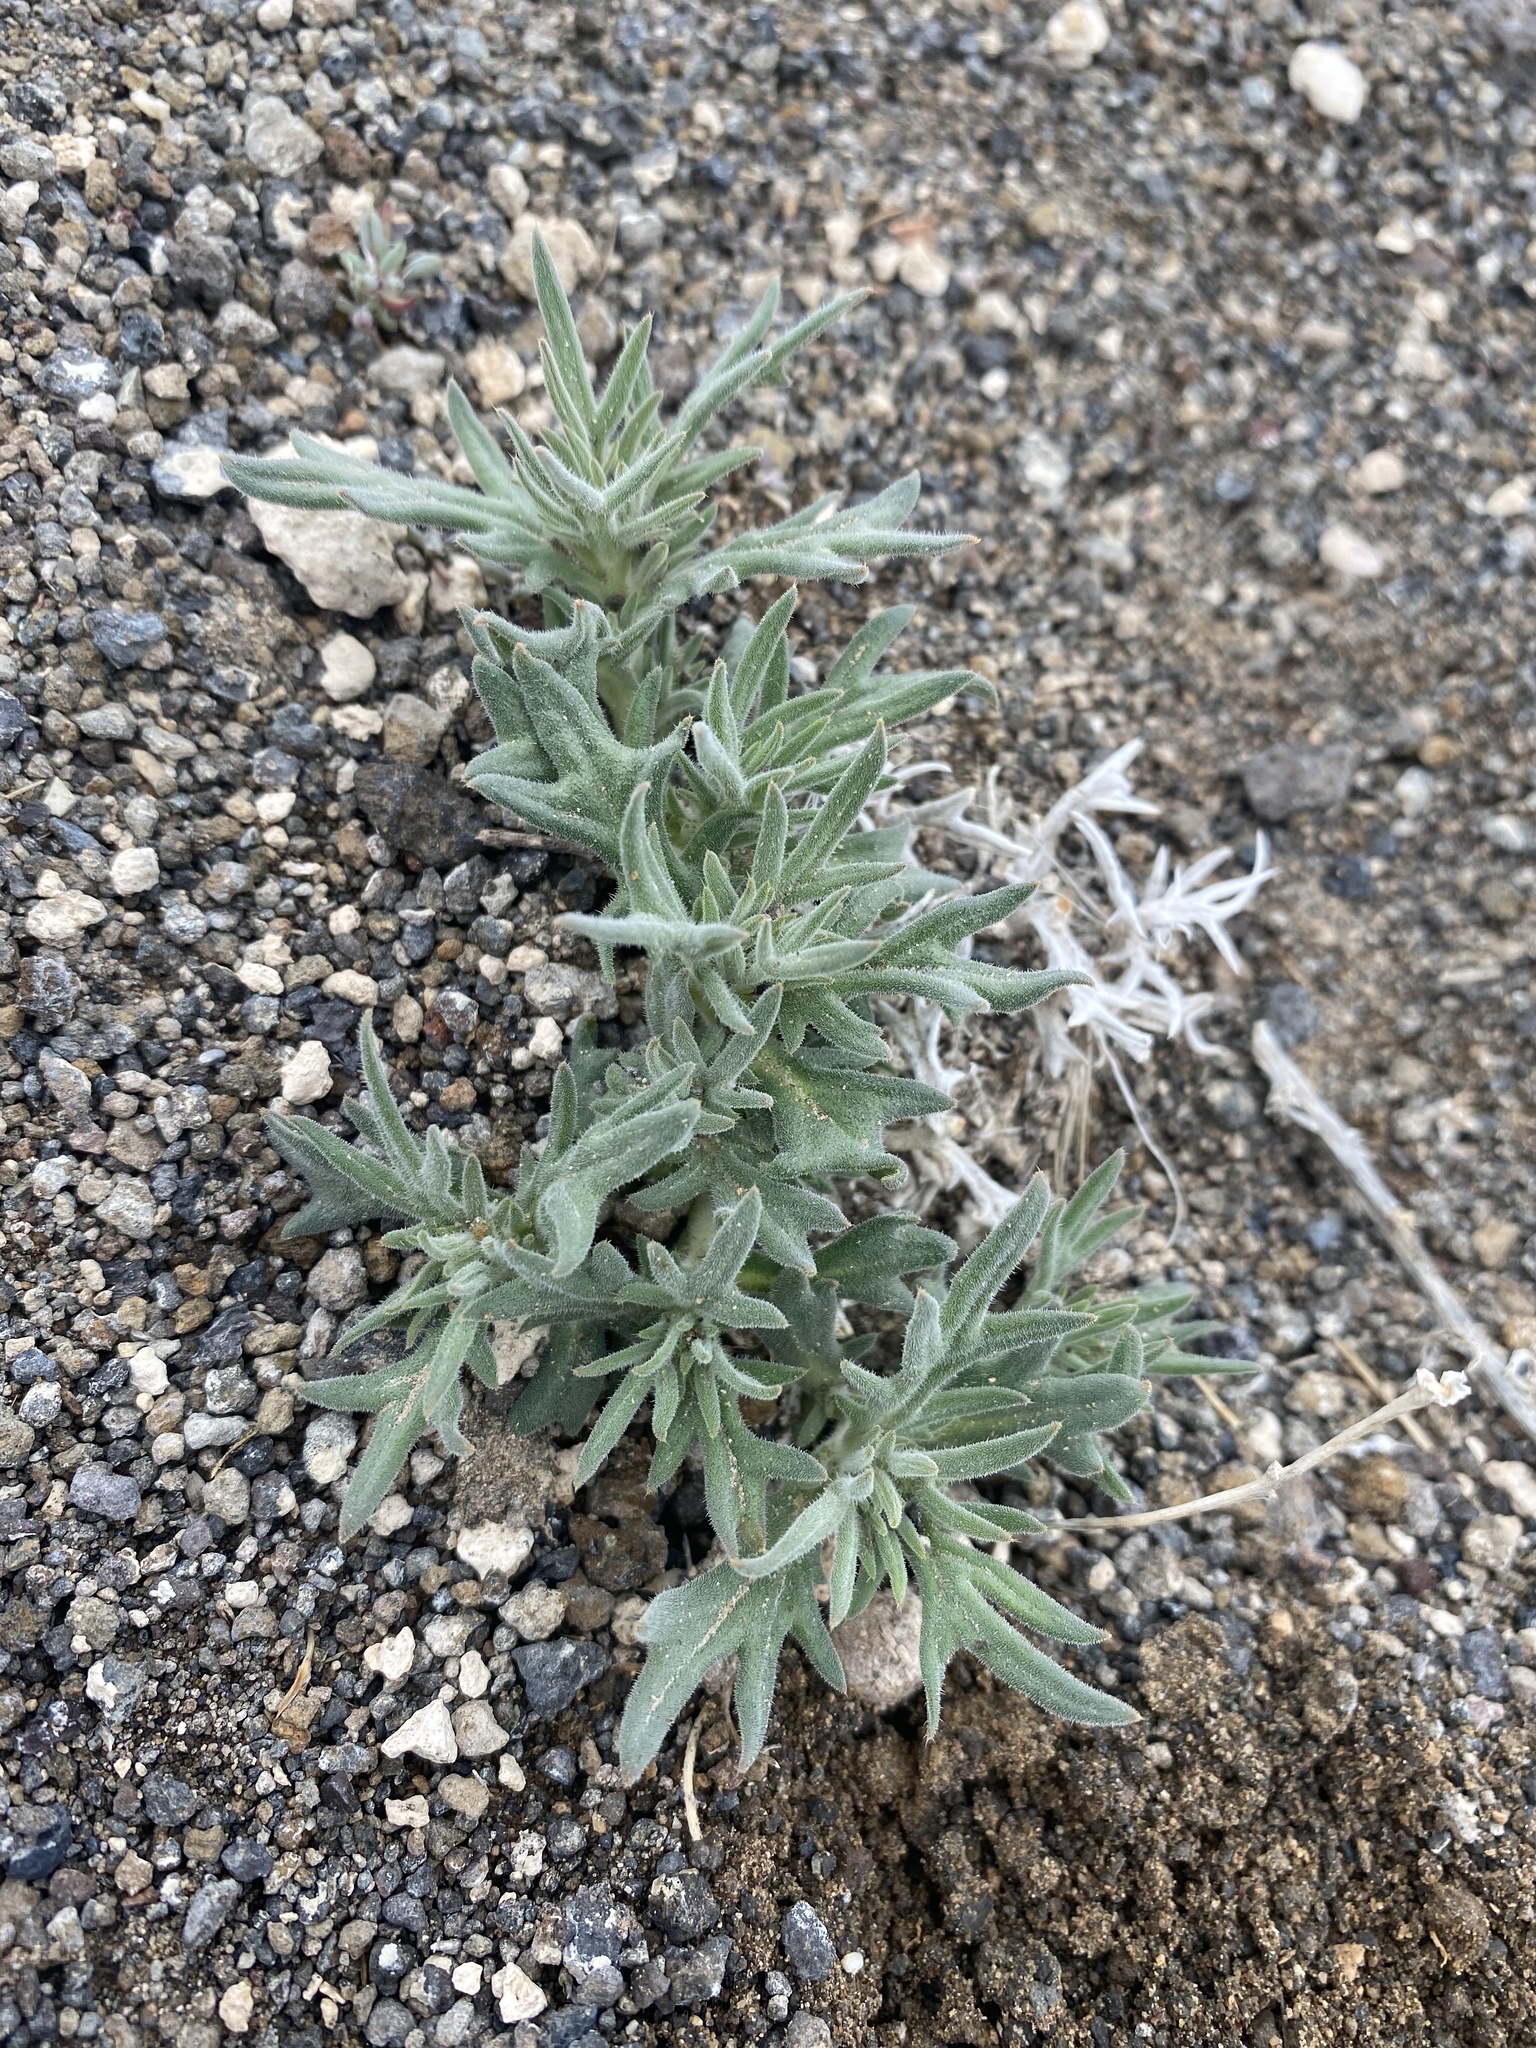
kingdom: Plantae
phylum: Tracheophyta
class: Magnoliopsida
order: Cornales
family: Loasaceae
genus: Mentzelia
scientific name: Mentzelia torreyi
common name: Torrey's blazingstar
